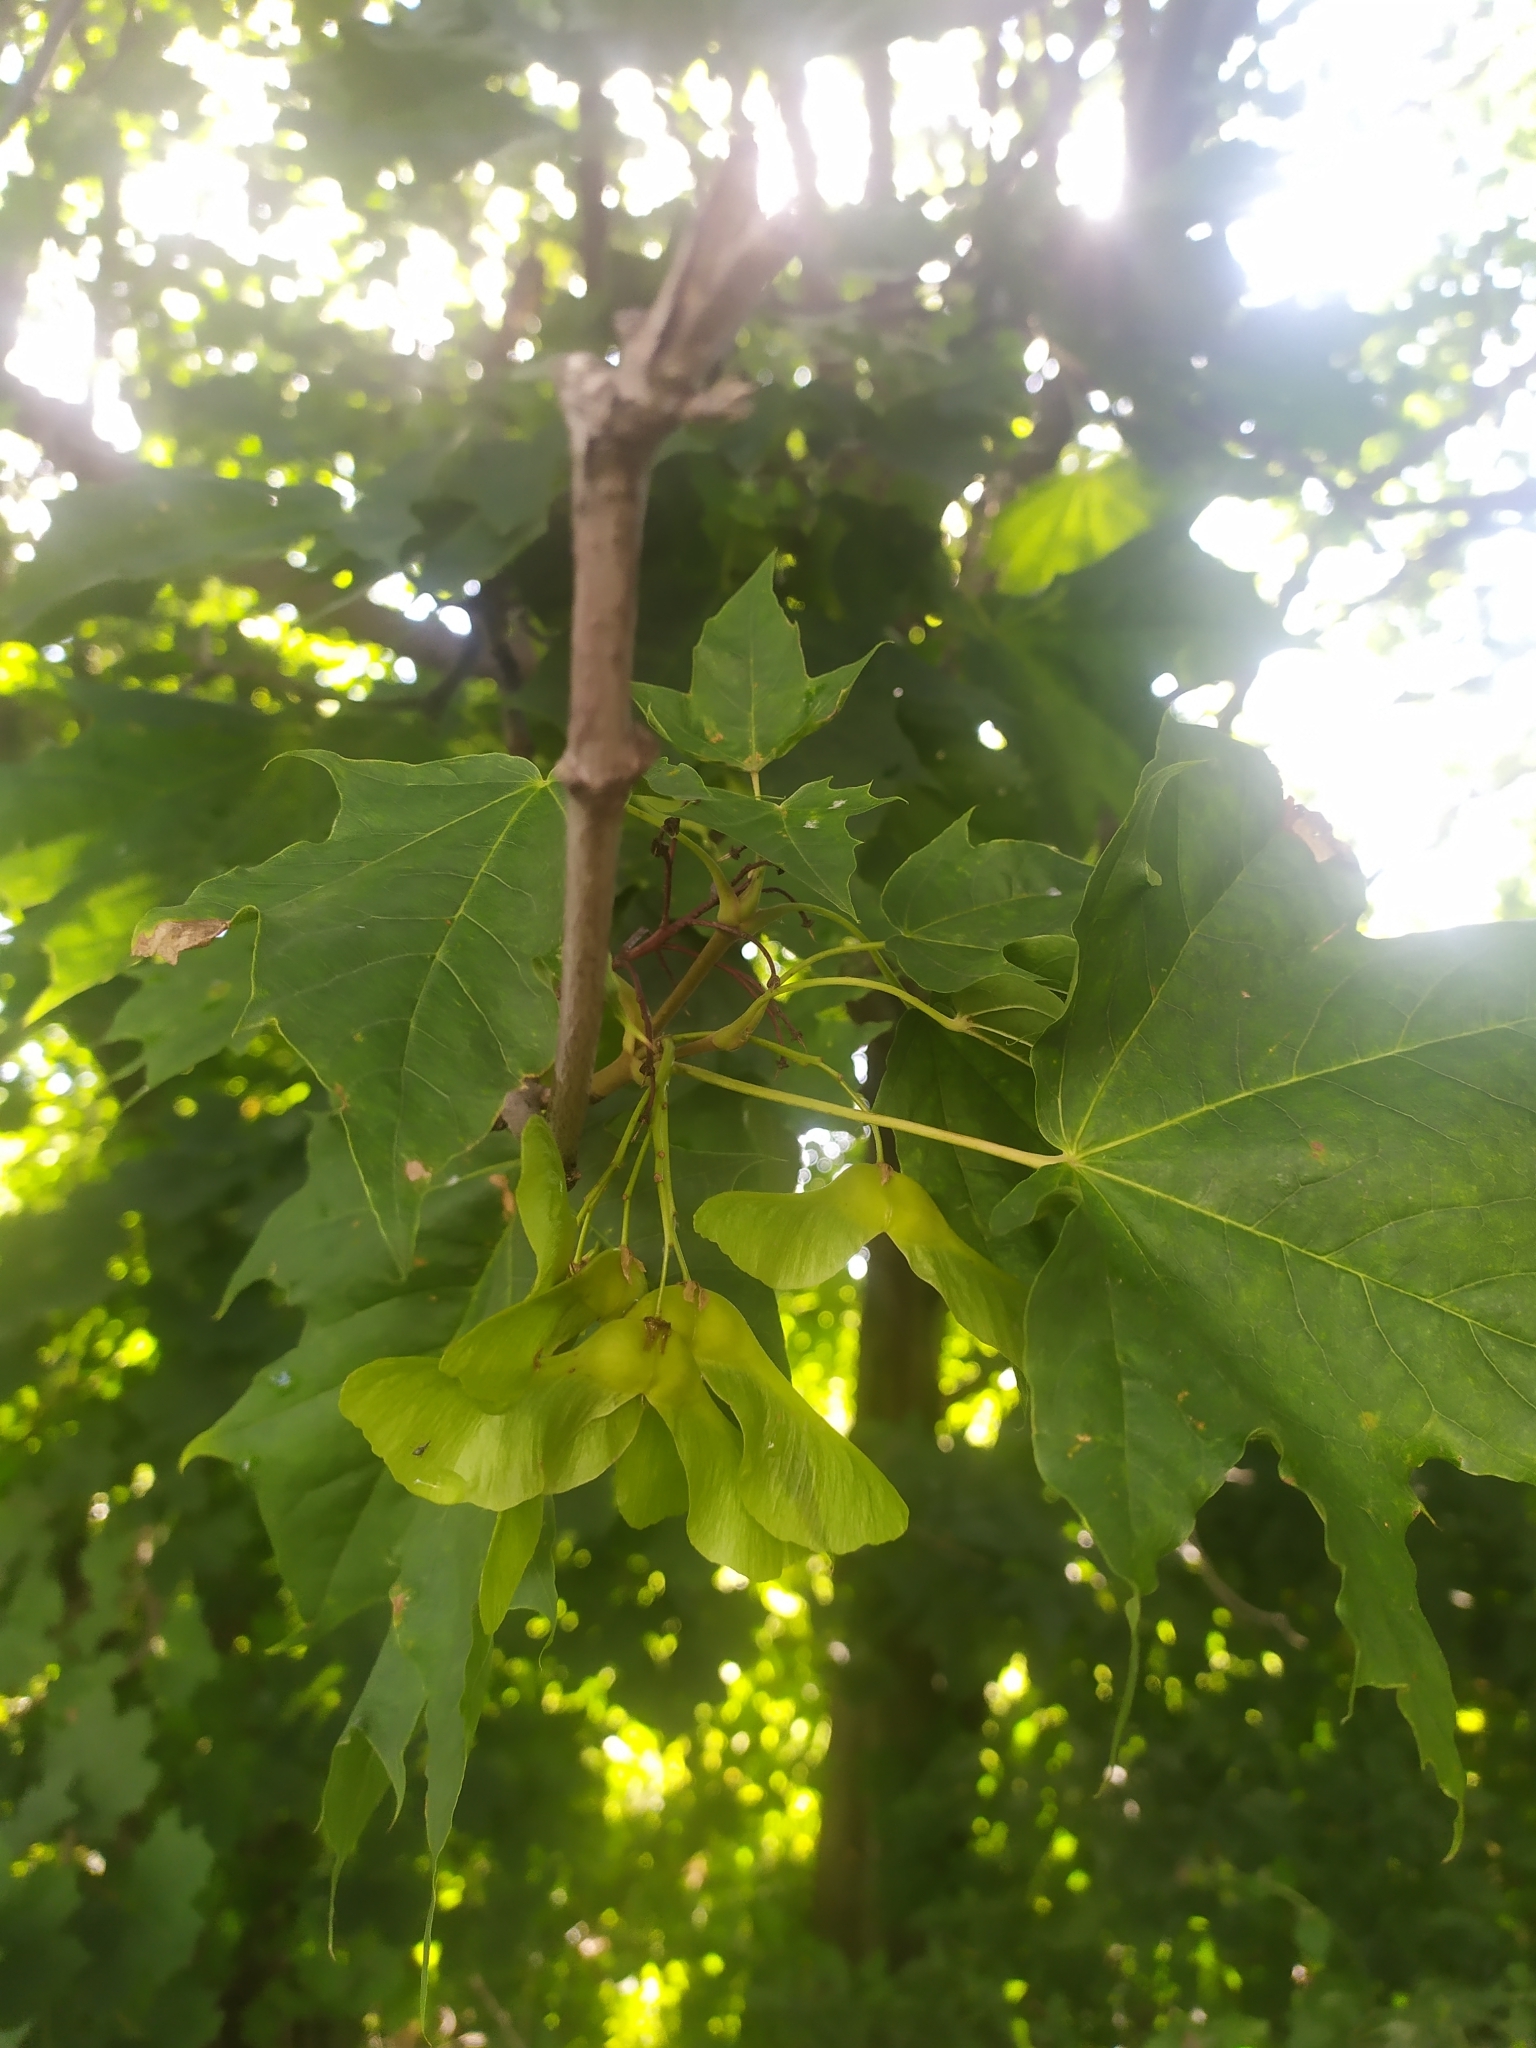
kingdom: Plantae
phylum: Tracheophyta
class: Magnoliopsida
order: Sapindales
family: Sapindaceae
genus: Acer
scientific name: Acer platanoides
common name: Norway maple
